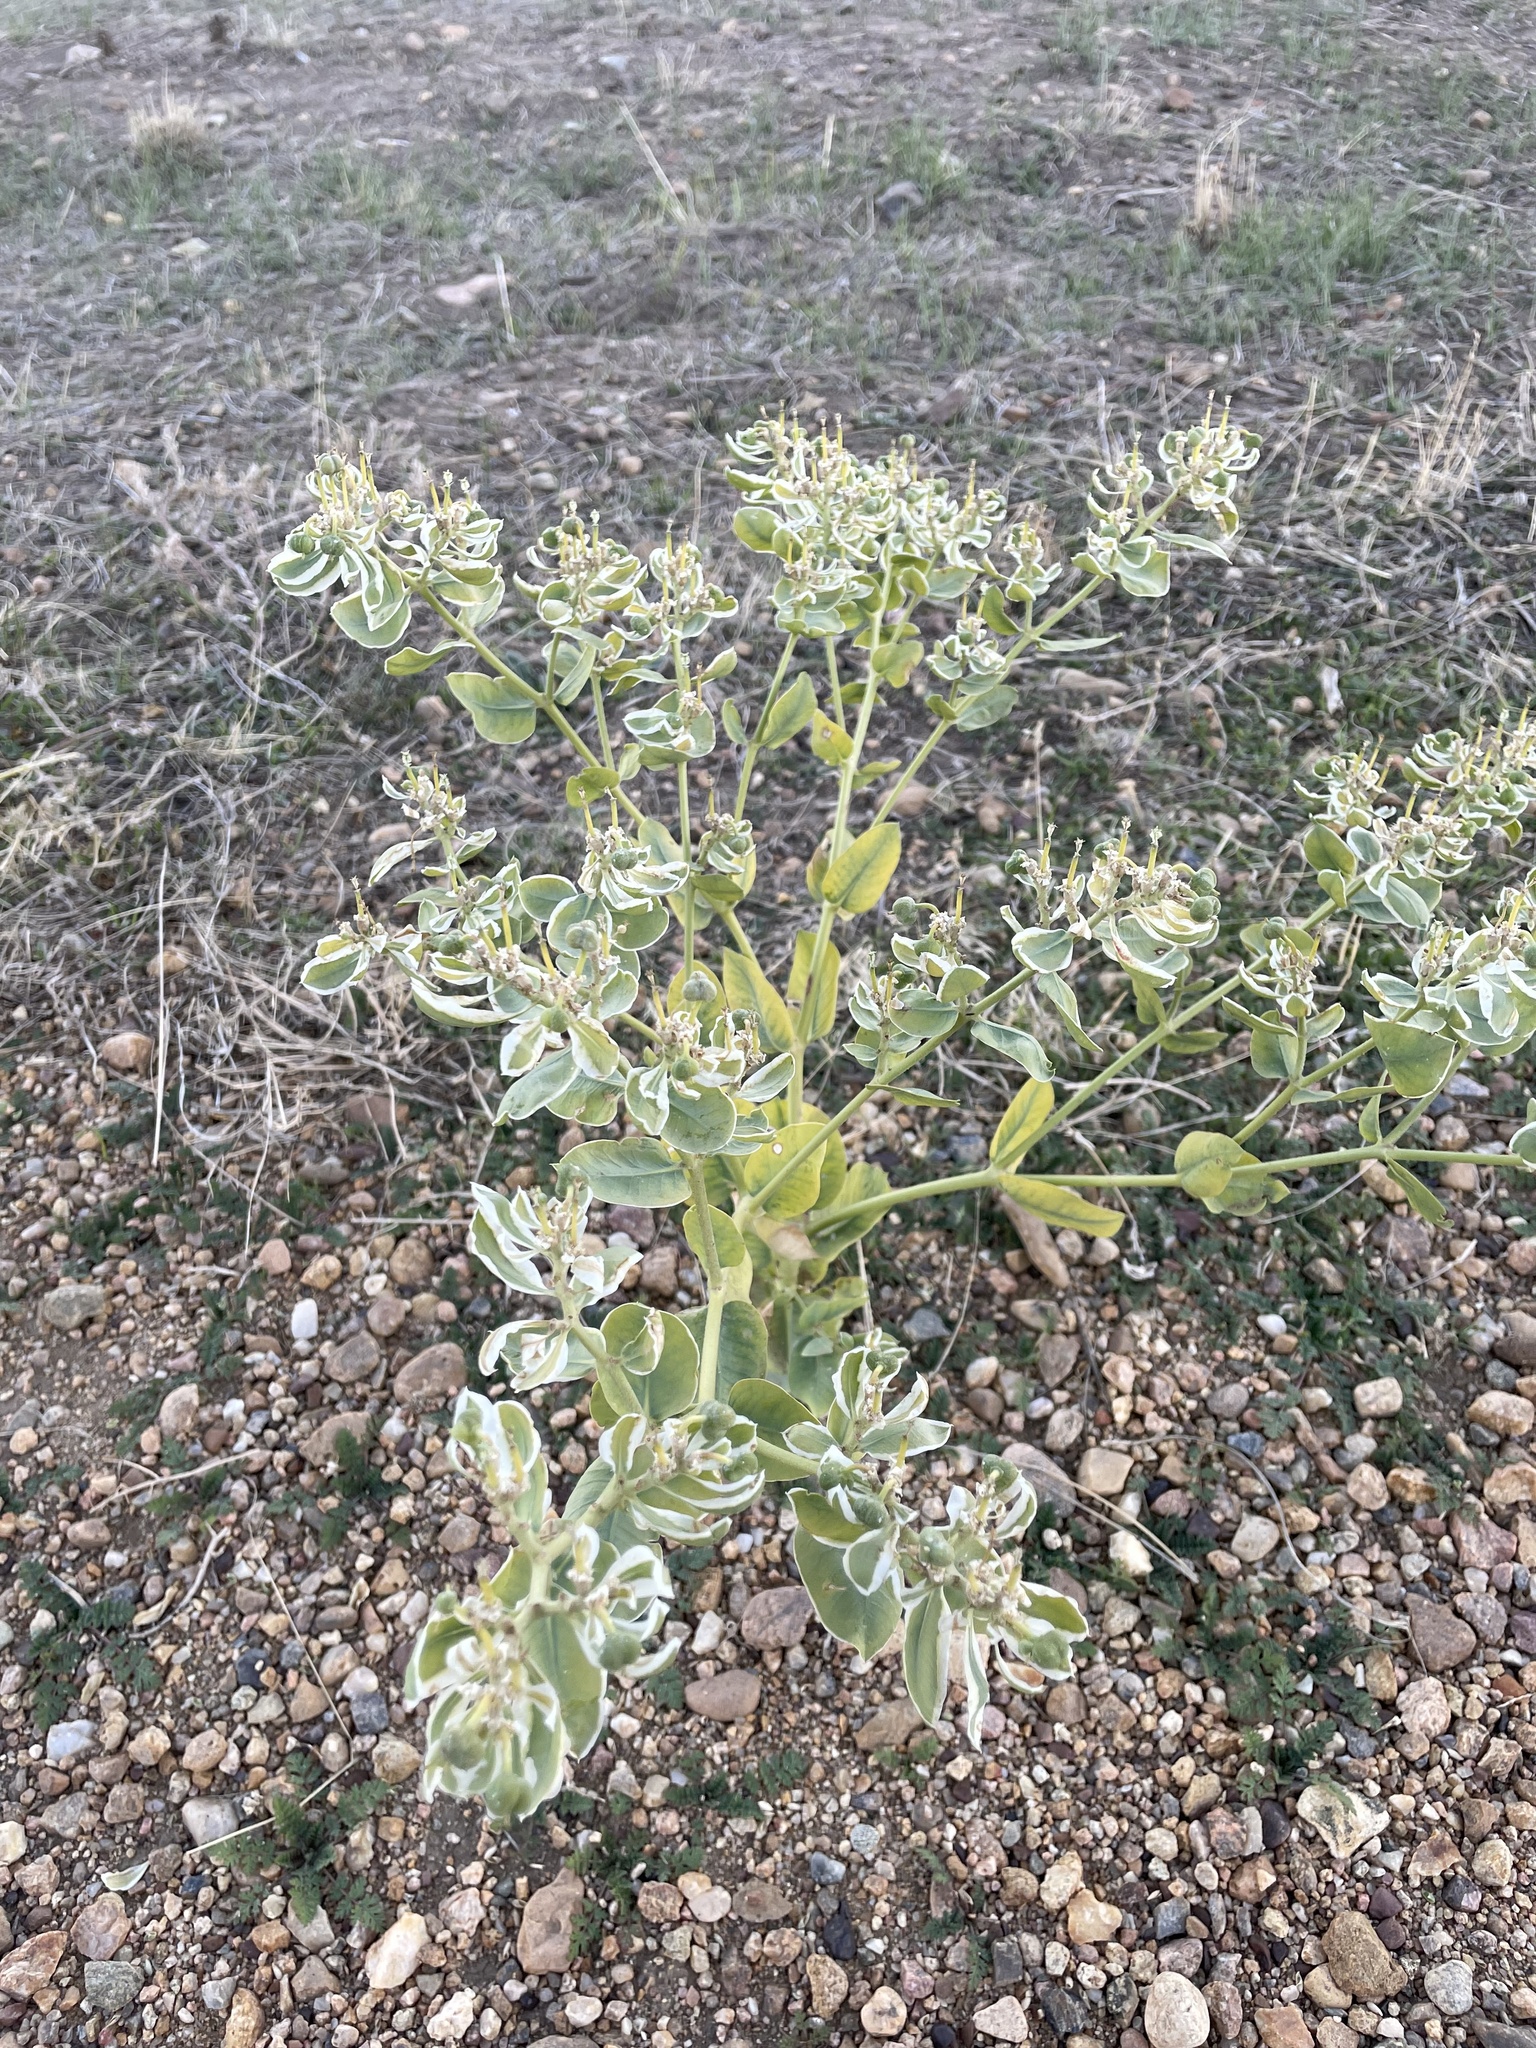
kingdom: Plantae
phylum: Tracheophyta
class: Magnoliopsida
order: Malpighiales
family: Euphorbiaceae
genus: Euphorbia
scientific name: Euphorbia marginata
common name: Ghostweed
